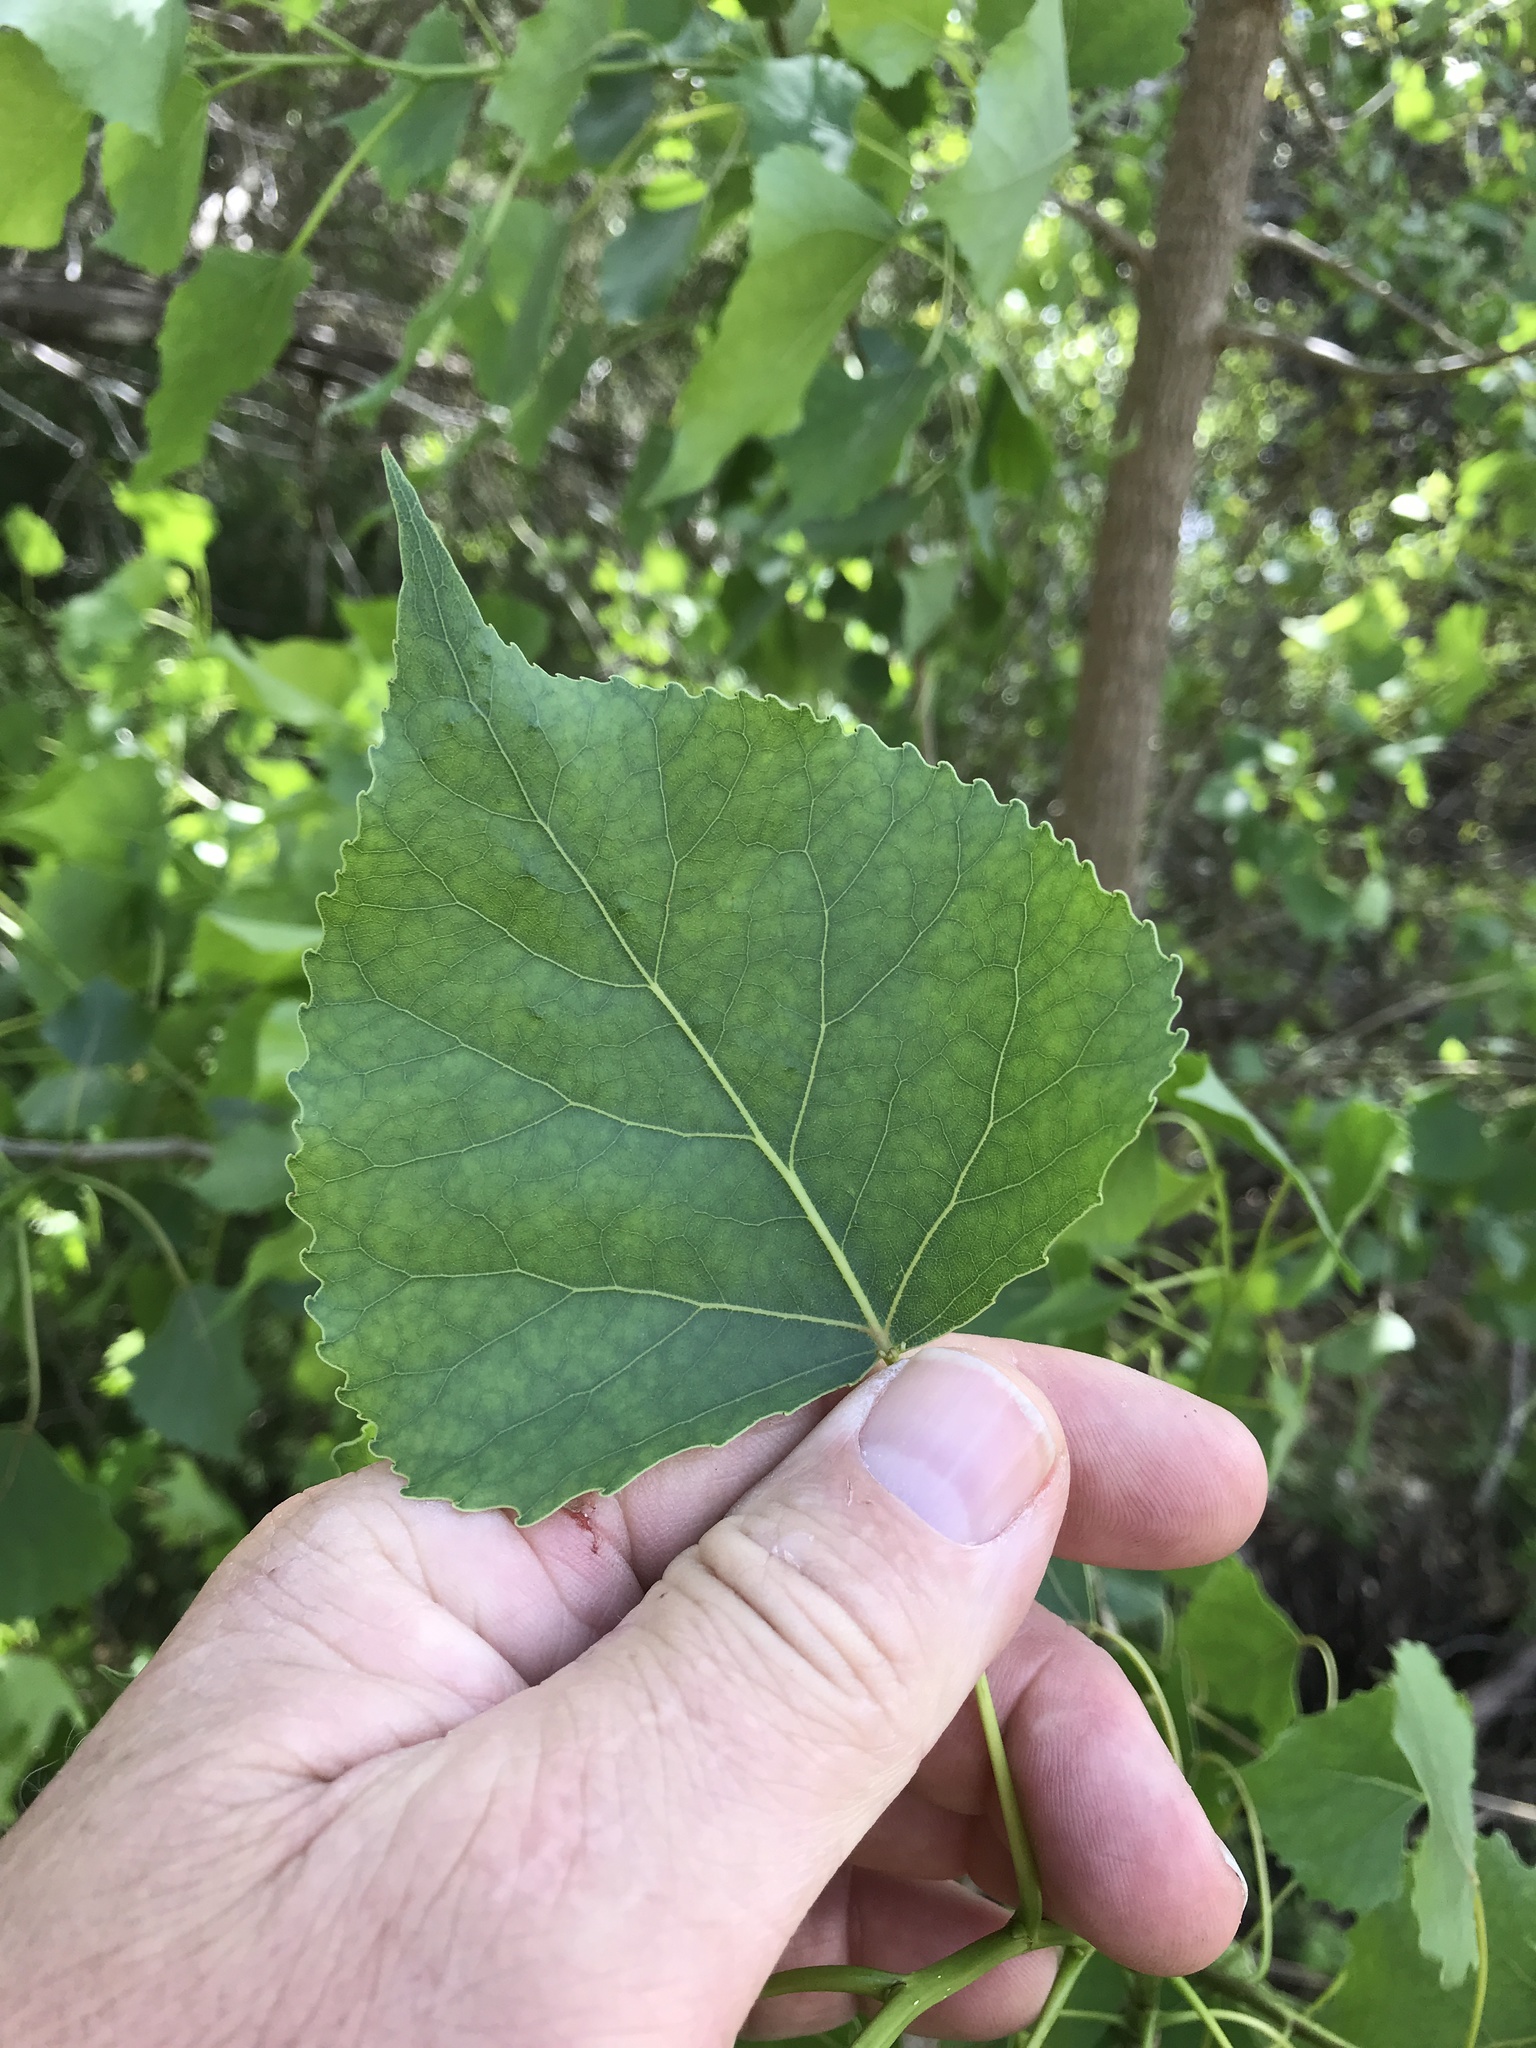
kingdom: Plantae
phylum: Tracheophyta
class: Magnoliopsida
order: Malpighiales
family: Salicaceae
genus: Populus
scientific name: Populus deltoides
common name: Eastern cottonwood
